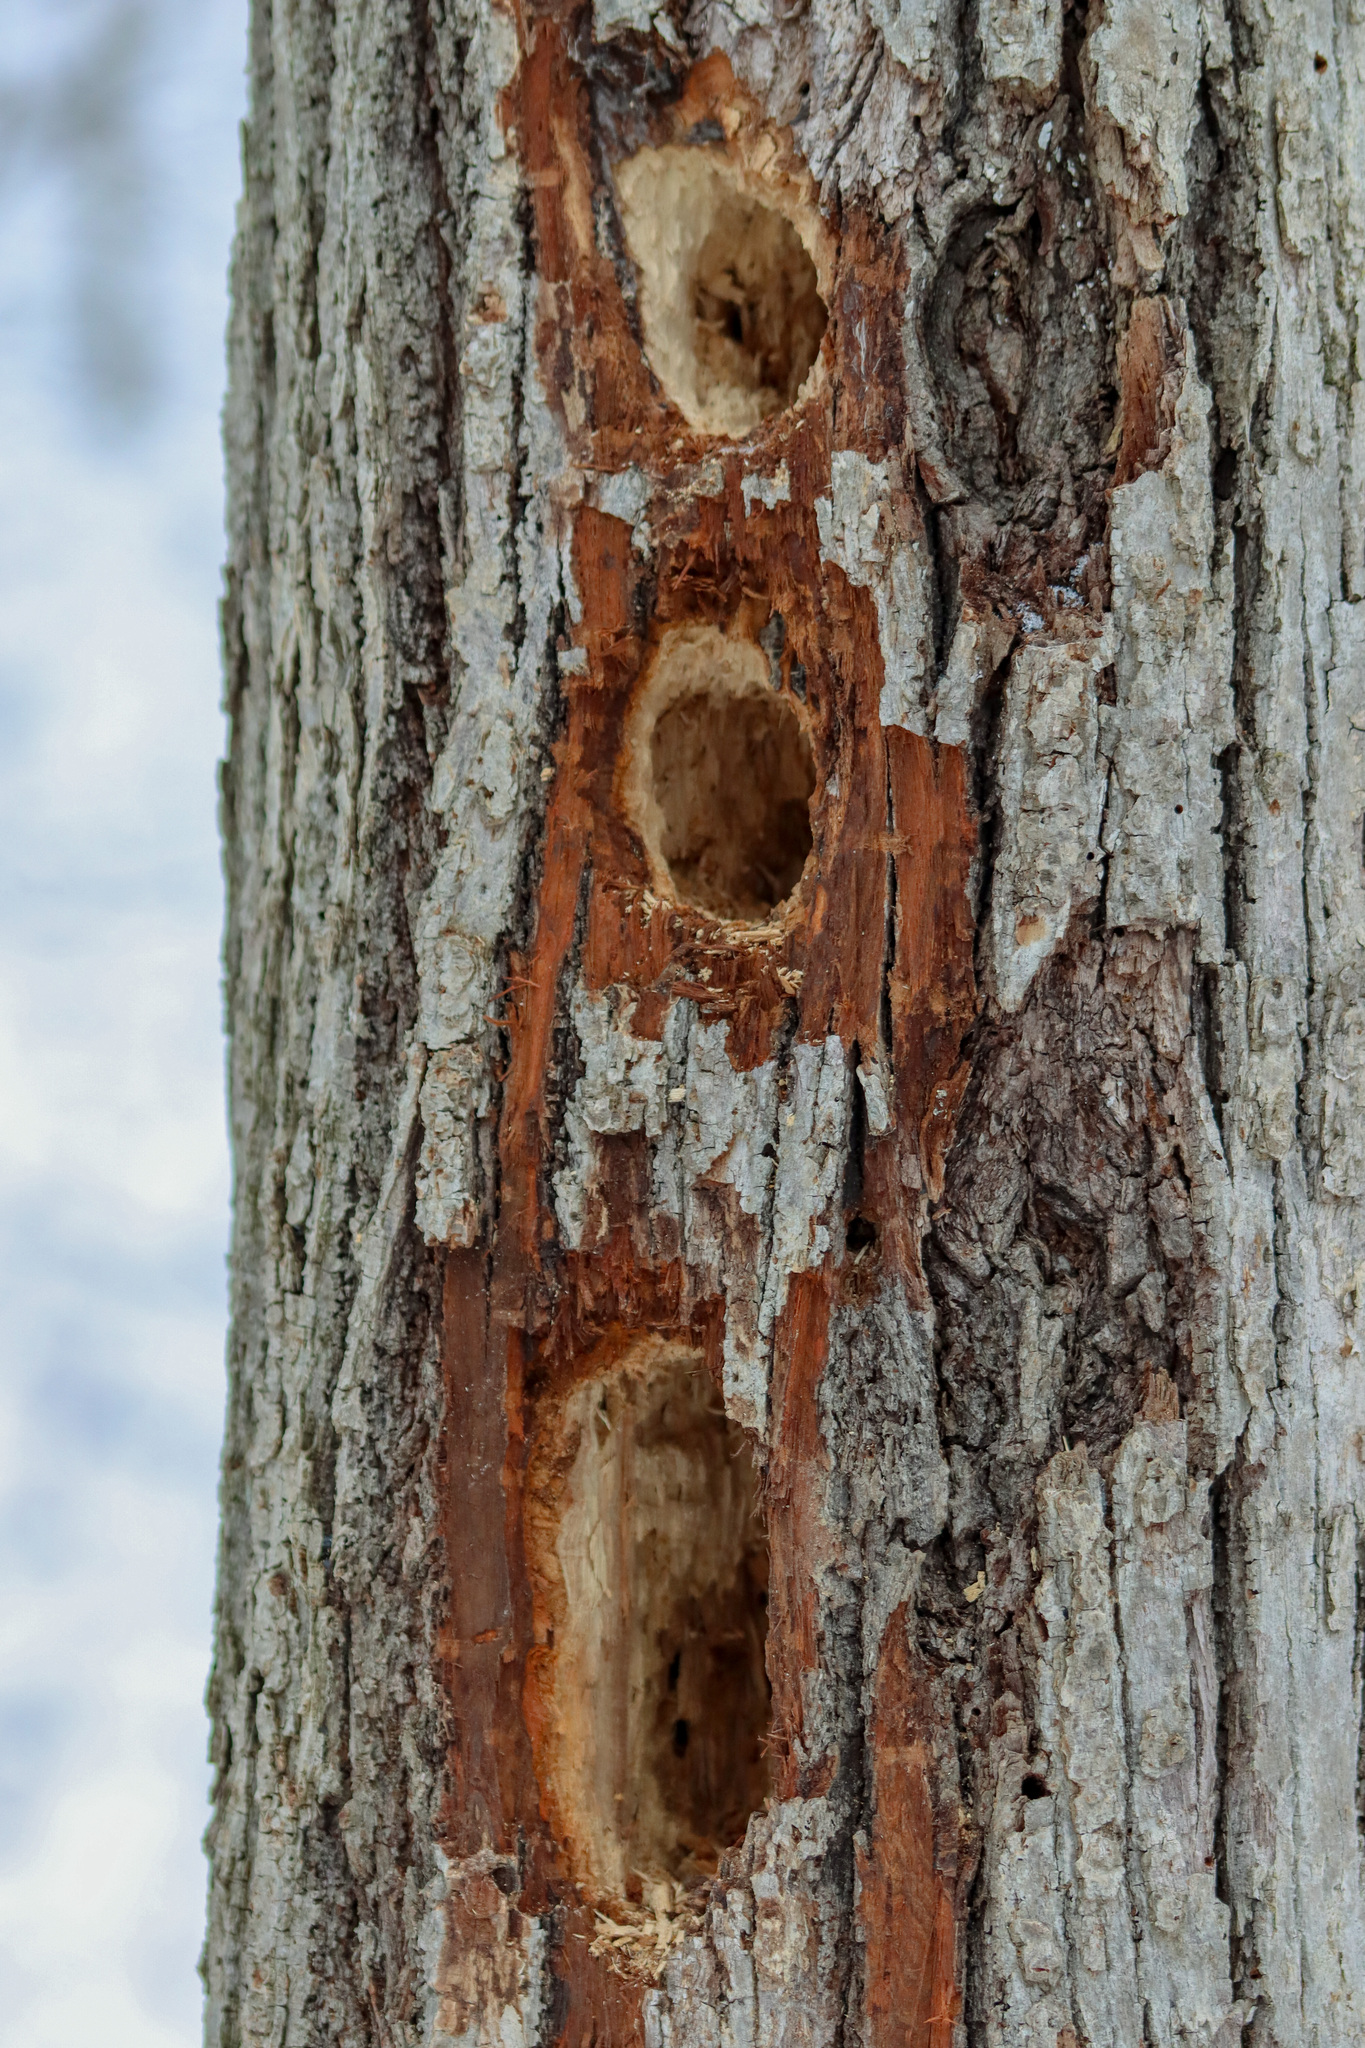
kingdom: Animalia
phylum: Chordata
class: Aves
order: Piciformes
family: Picidae
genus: Dryocopus
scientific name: Dryocopus pileatus
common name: Pileated woodpecker
